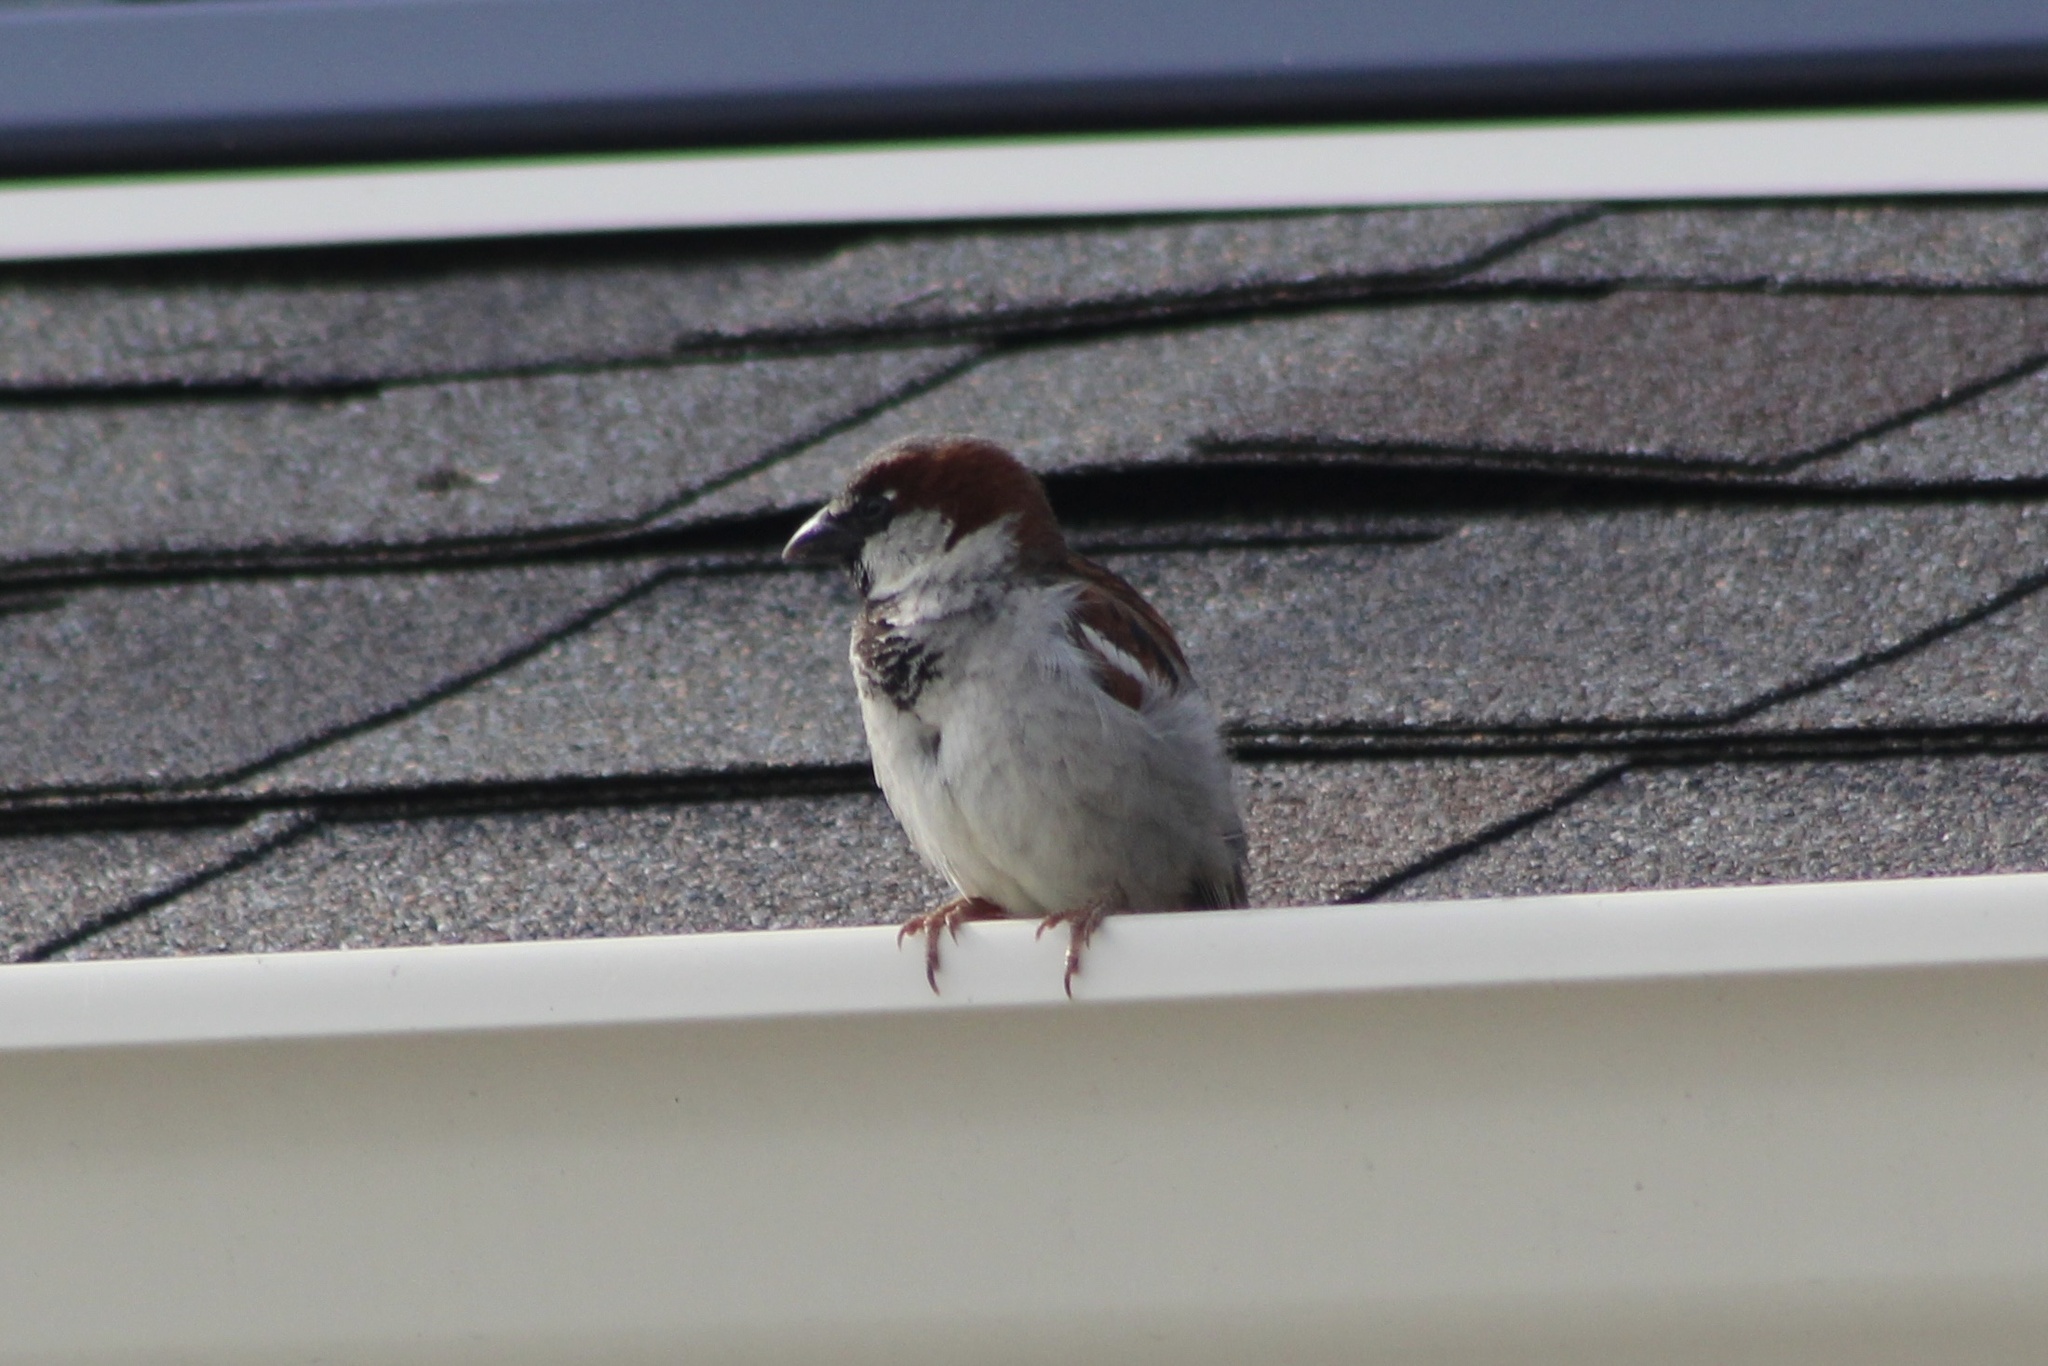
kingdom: Animalia
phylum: Chordata
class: Aves
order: Passeriformes
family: Passeridae
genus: Passer
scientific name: Passer domesticus
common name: House sparrow
